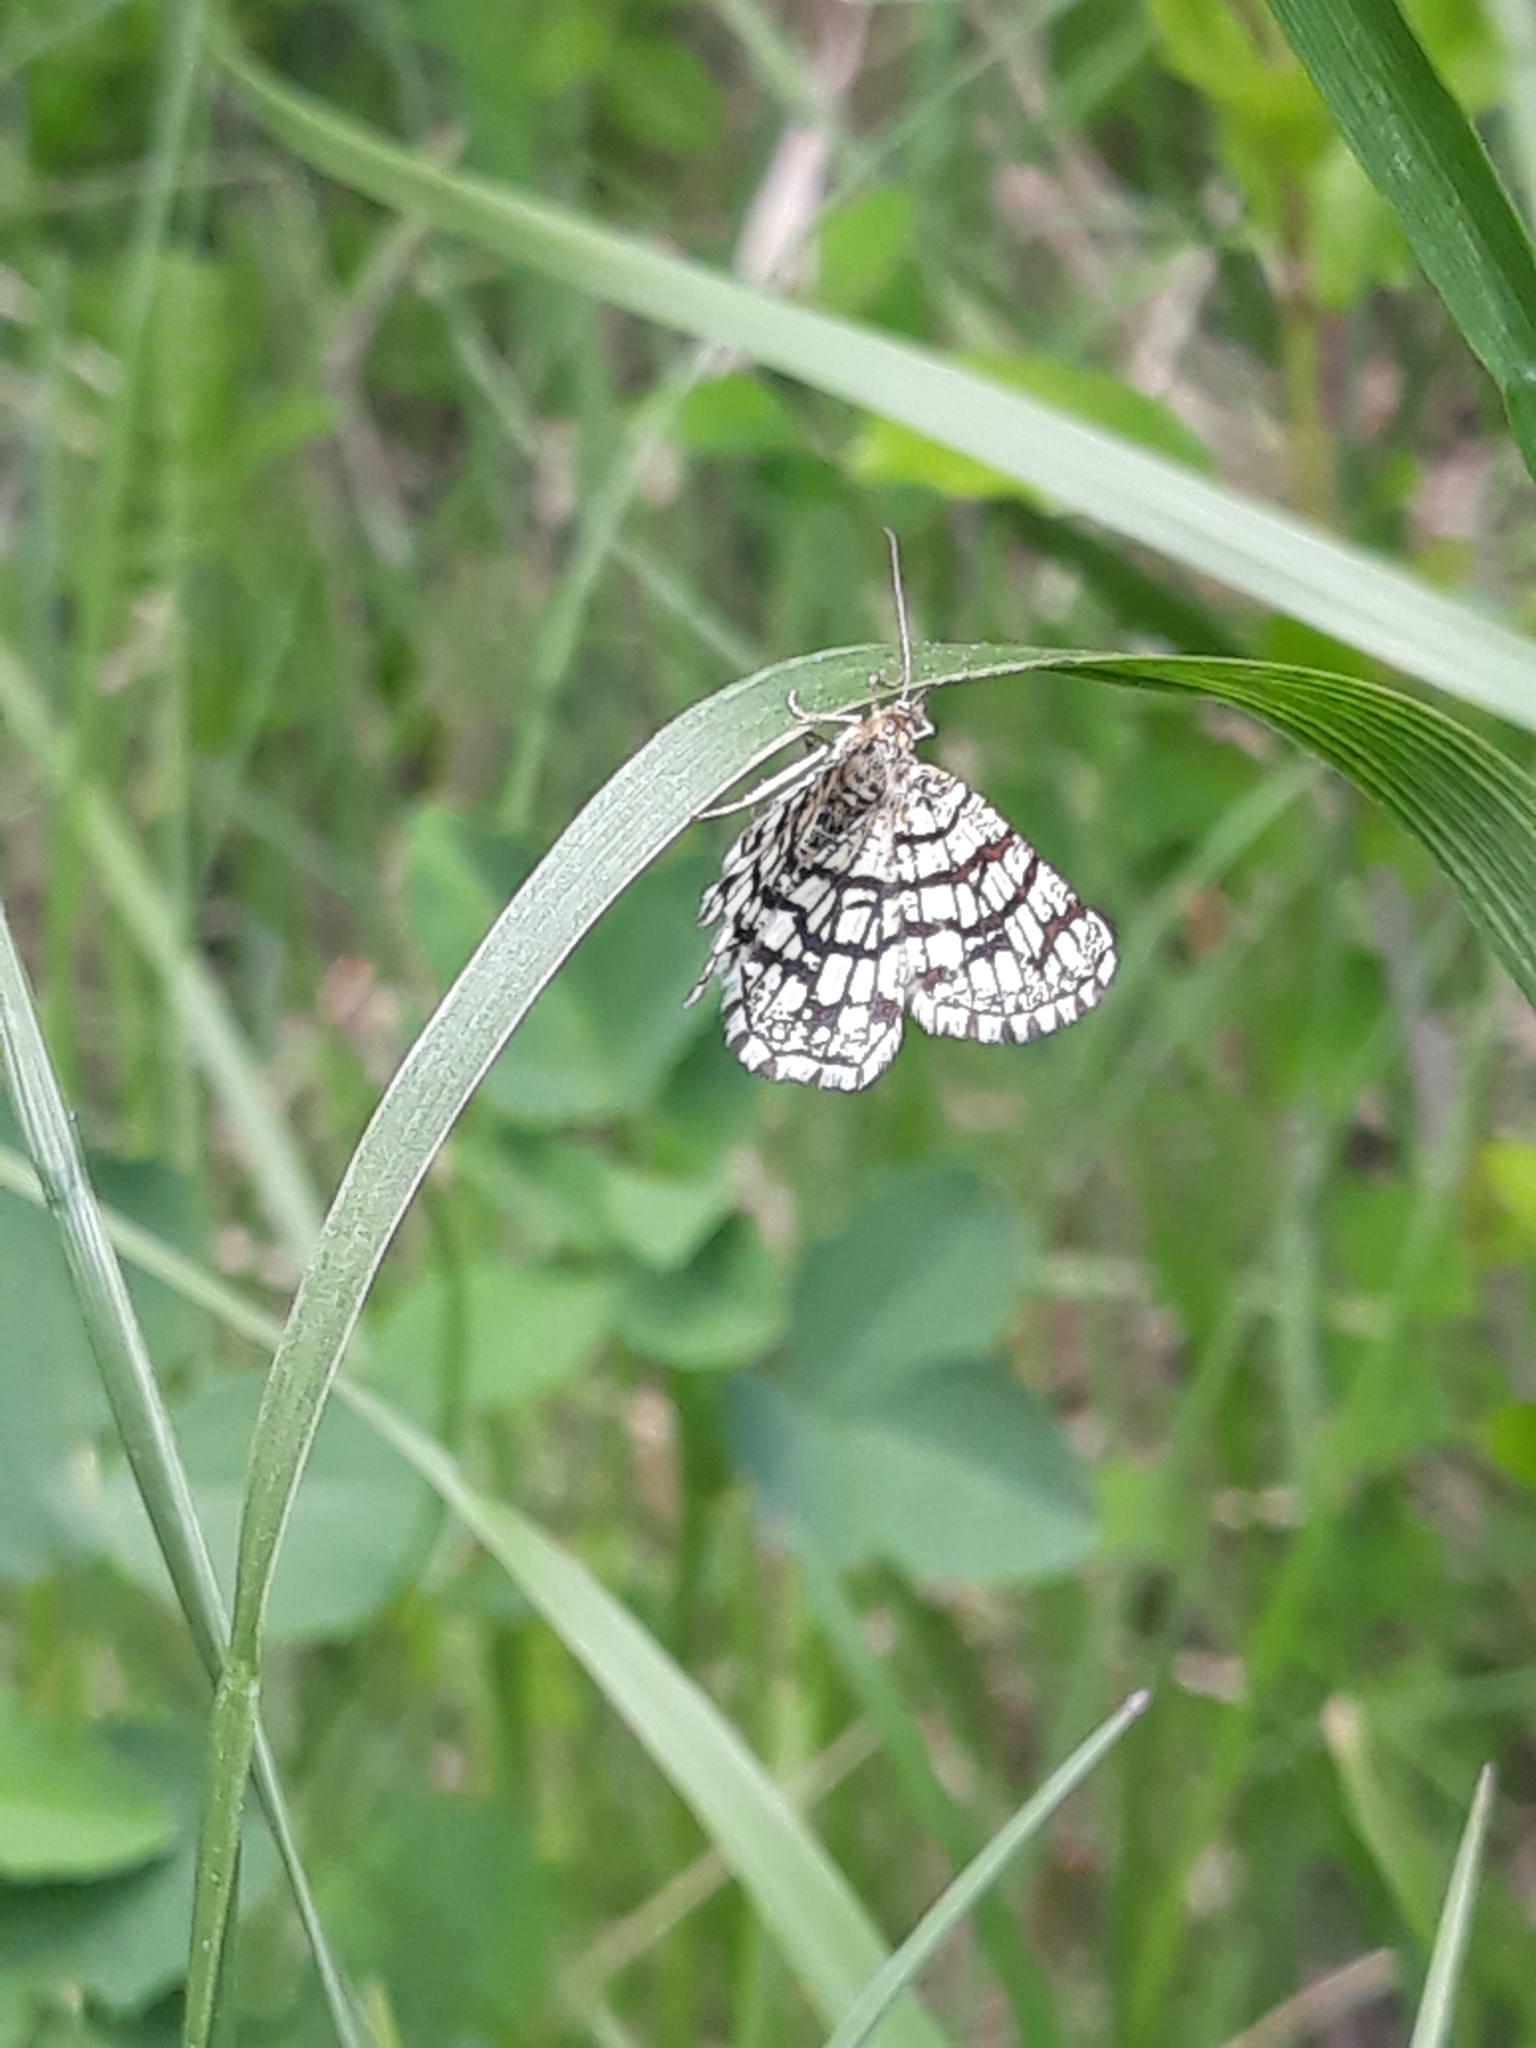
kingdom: Animalia
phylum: Arthropoda
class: Insecta
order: Lepidoptera
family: Geometridae
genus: Chiasmia
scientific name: Chiasmia clathrata
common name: Latticed heath
